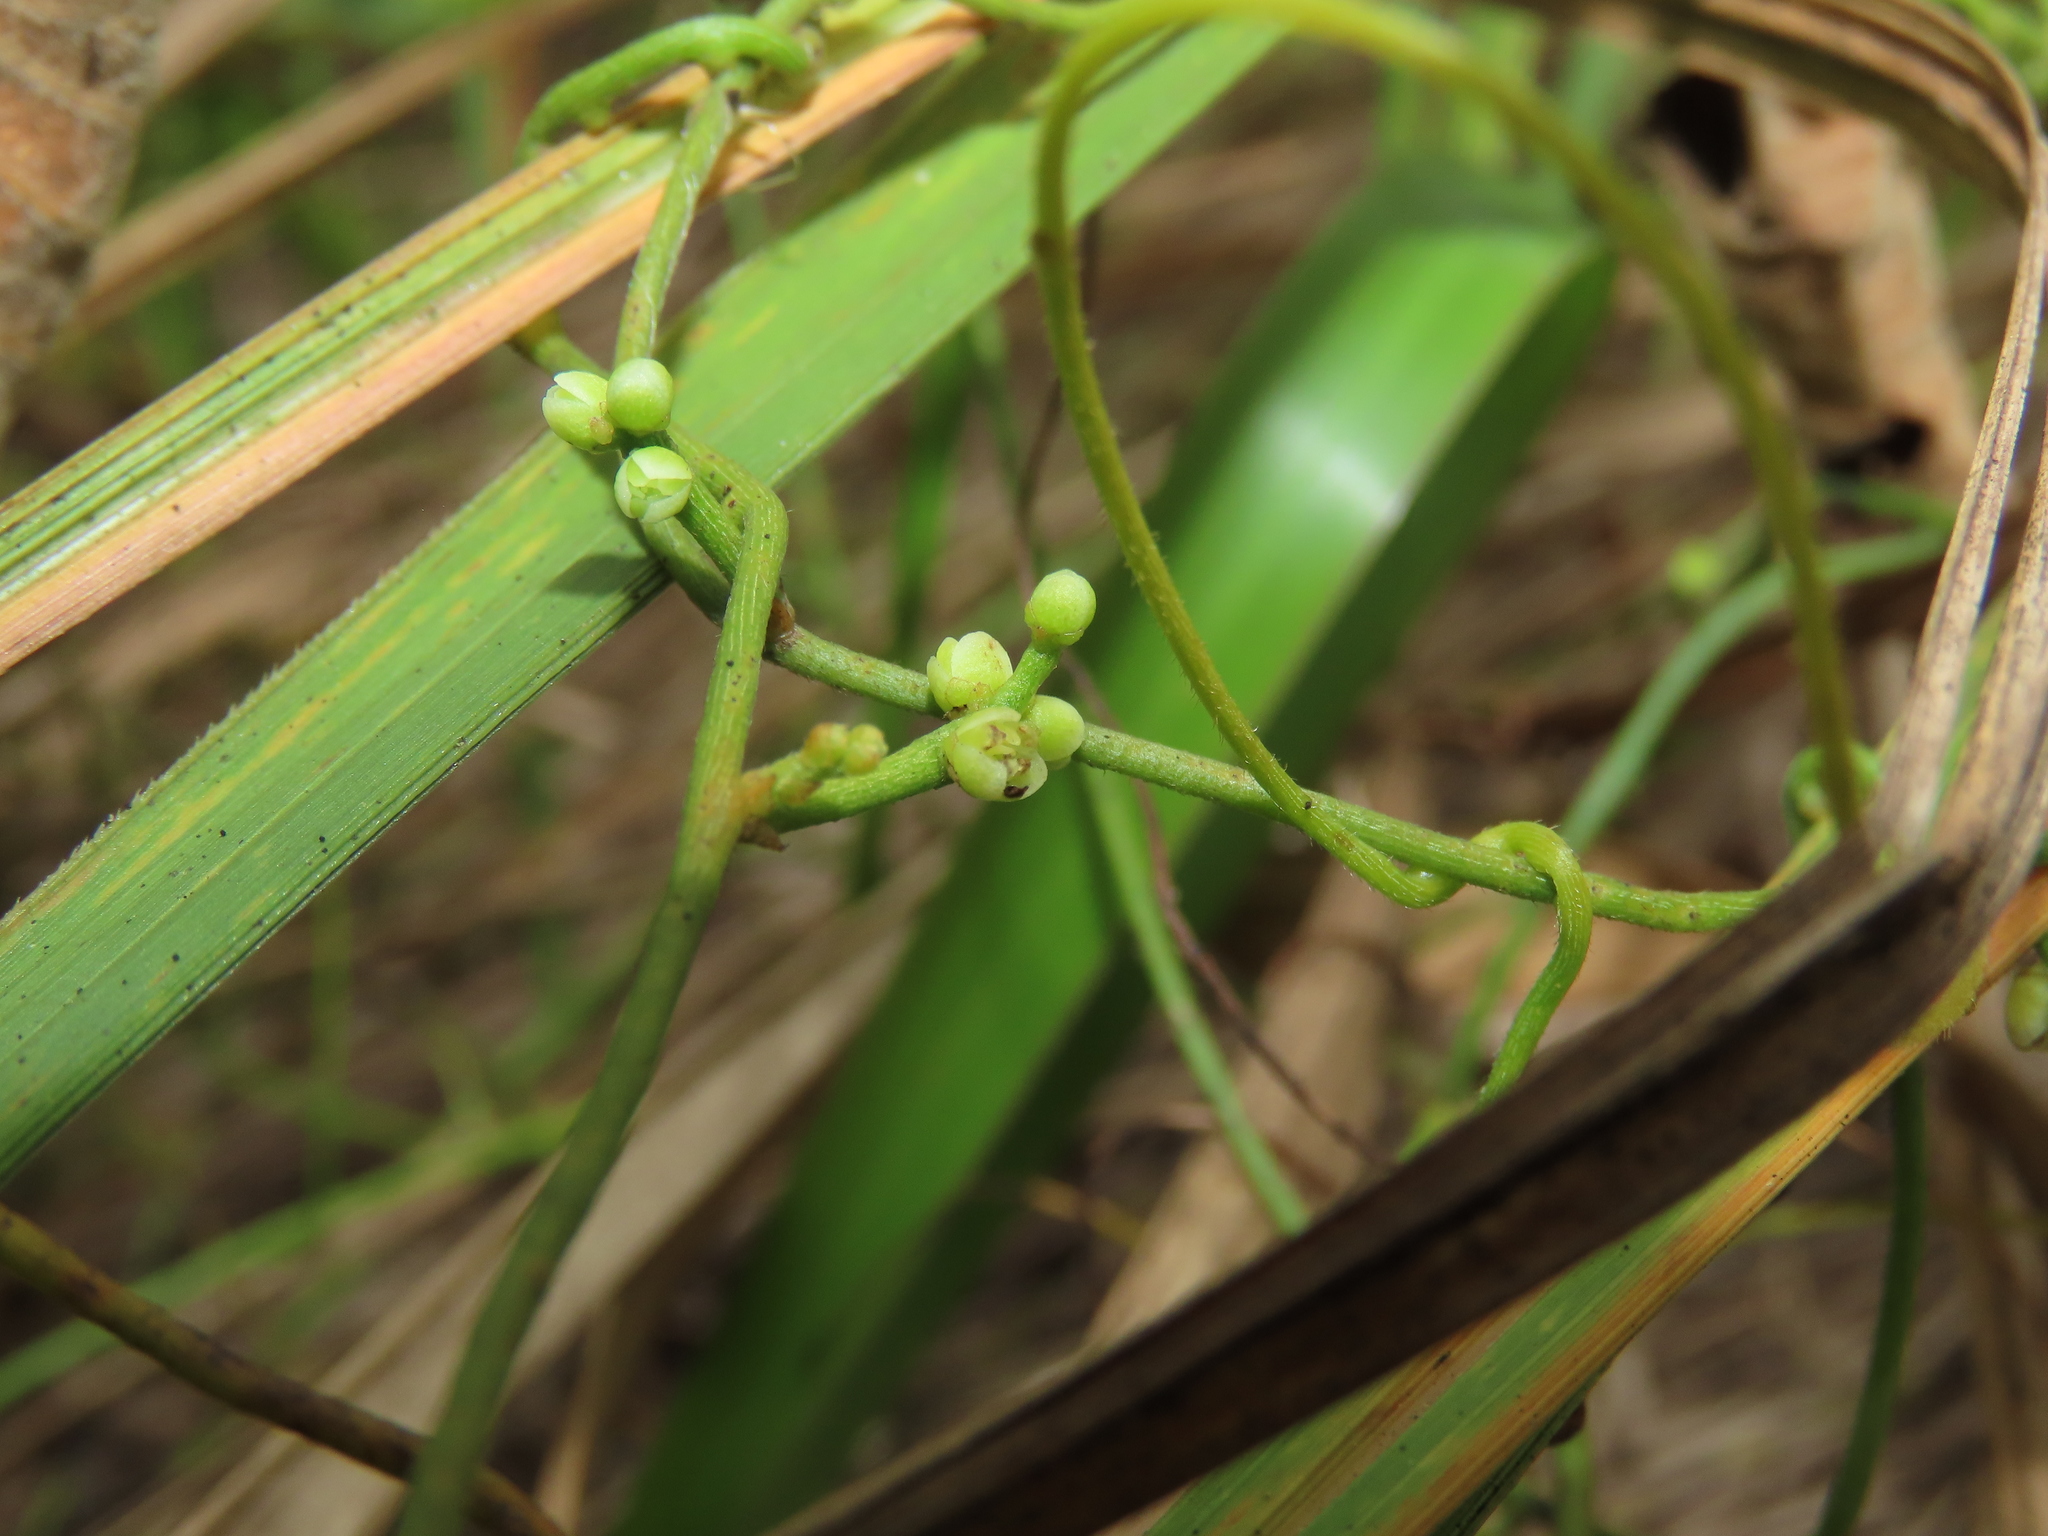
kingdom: Plantae
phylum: Tracheophyta
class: Magnoliopsida
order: Laurales
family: Lauraceae
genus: Cassytha
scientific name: Cassytha filiformis
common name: Dodder-laurel
